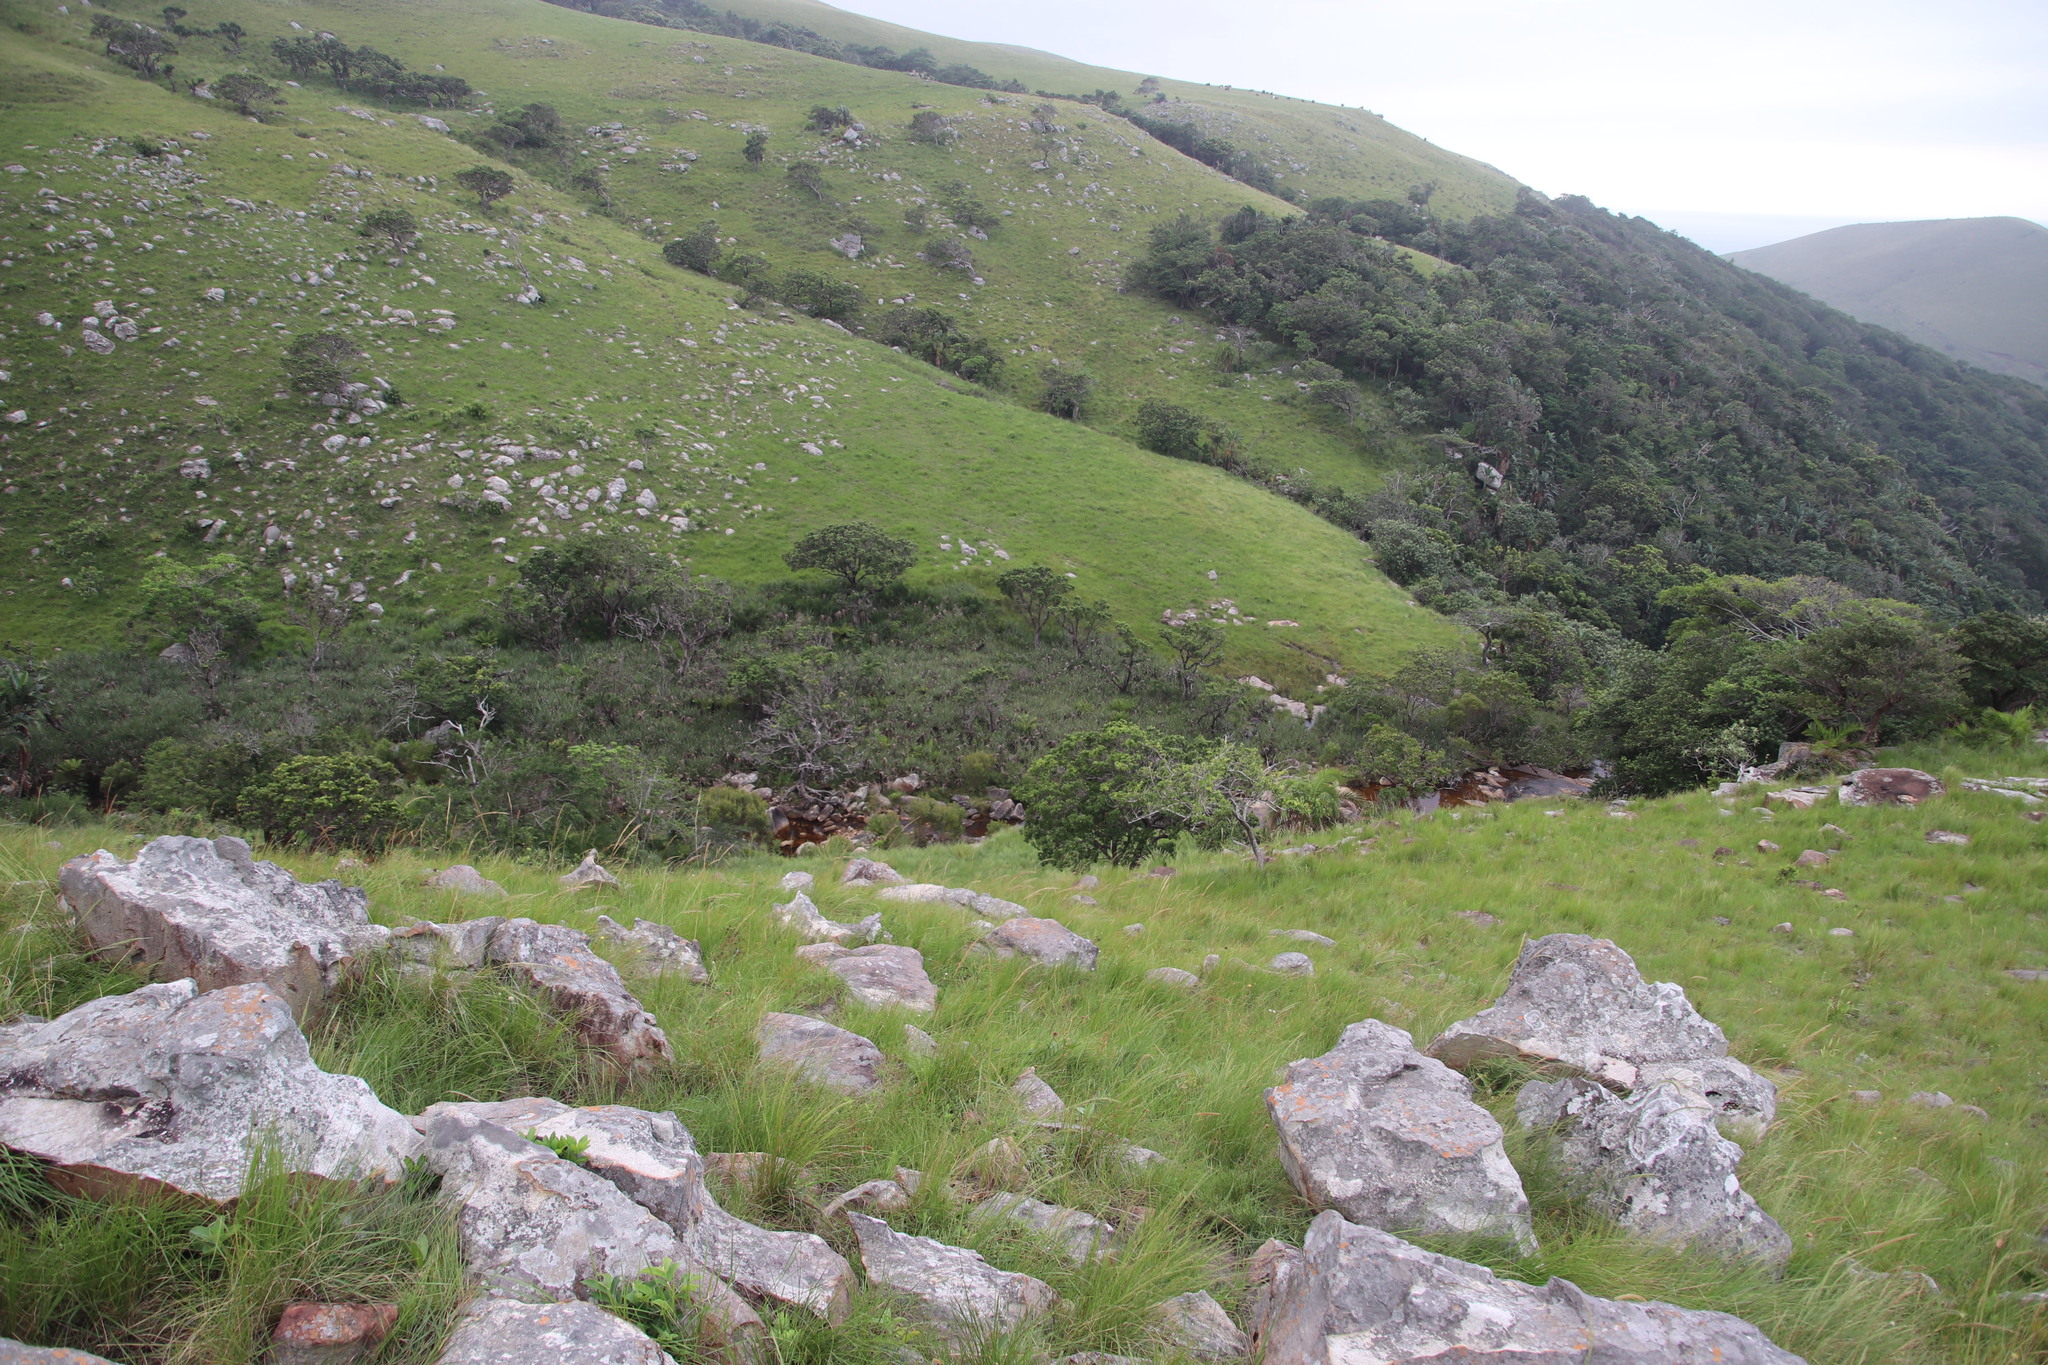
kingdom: Plantae
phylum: Tracheophyta
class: Liliopsida
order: Poales
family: Thurniaceae
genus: Prionium
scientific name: Prionium serratum
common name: Palmiet
